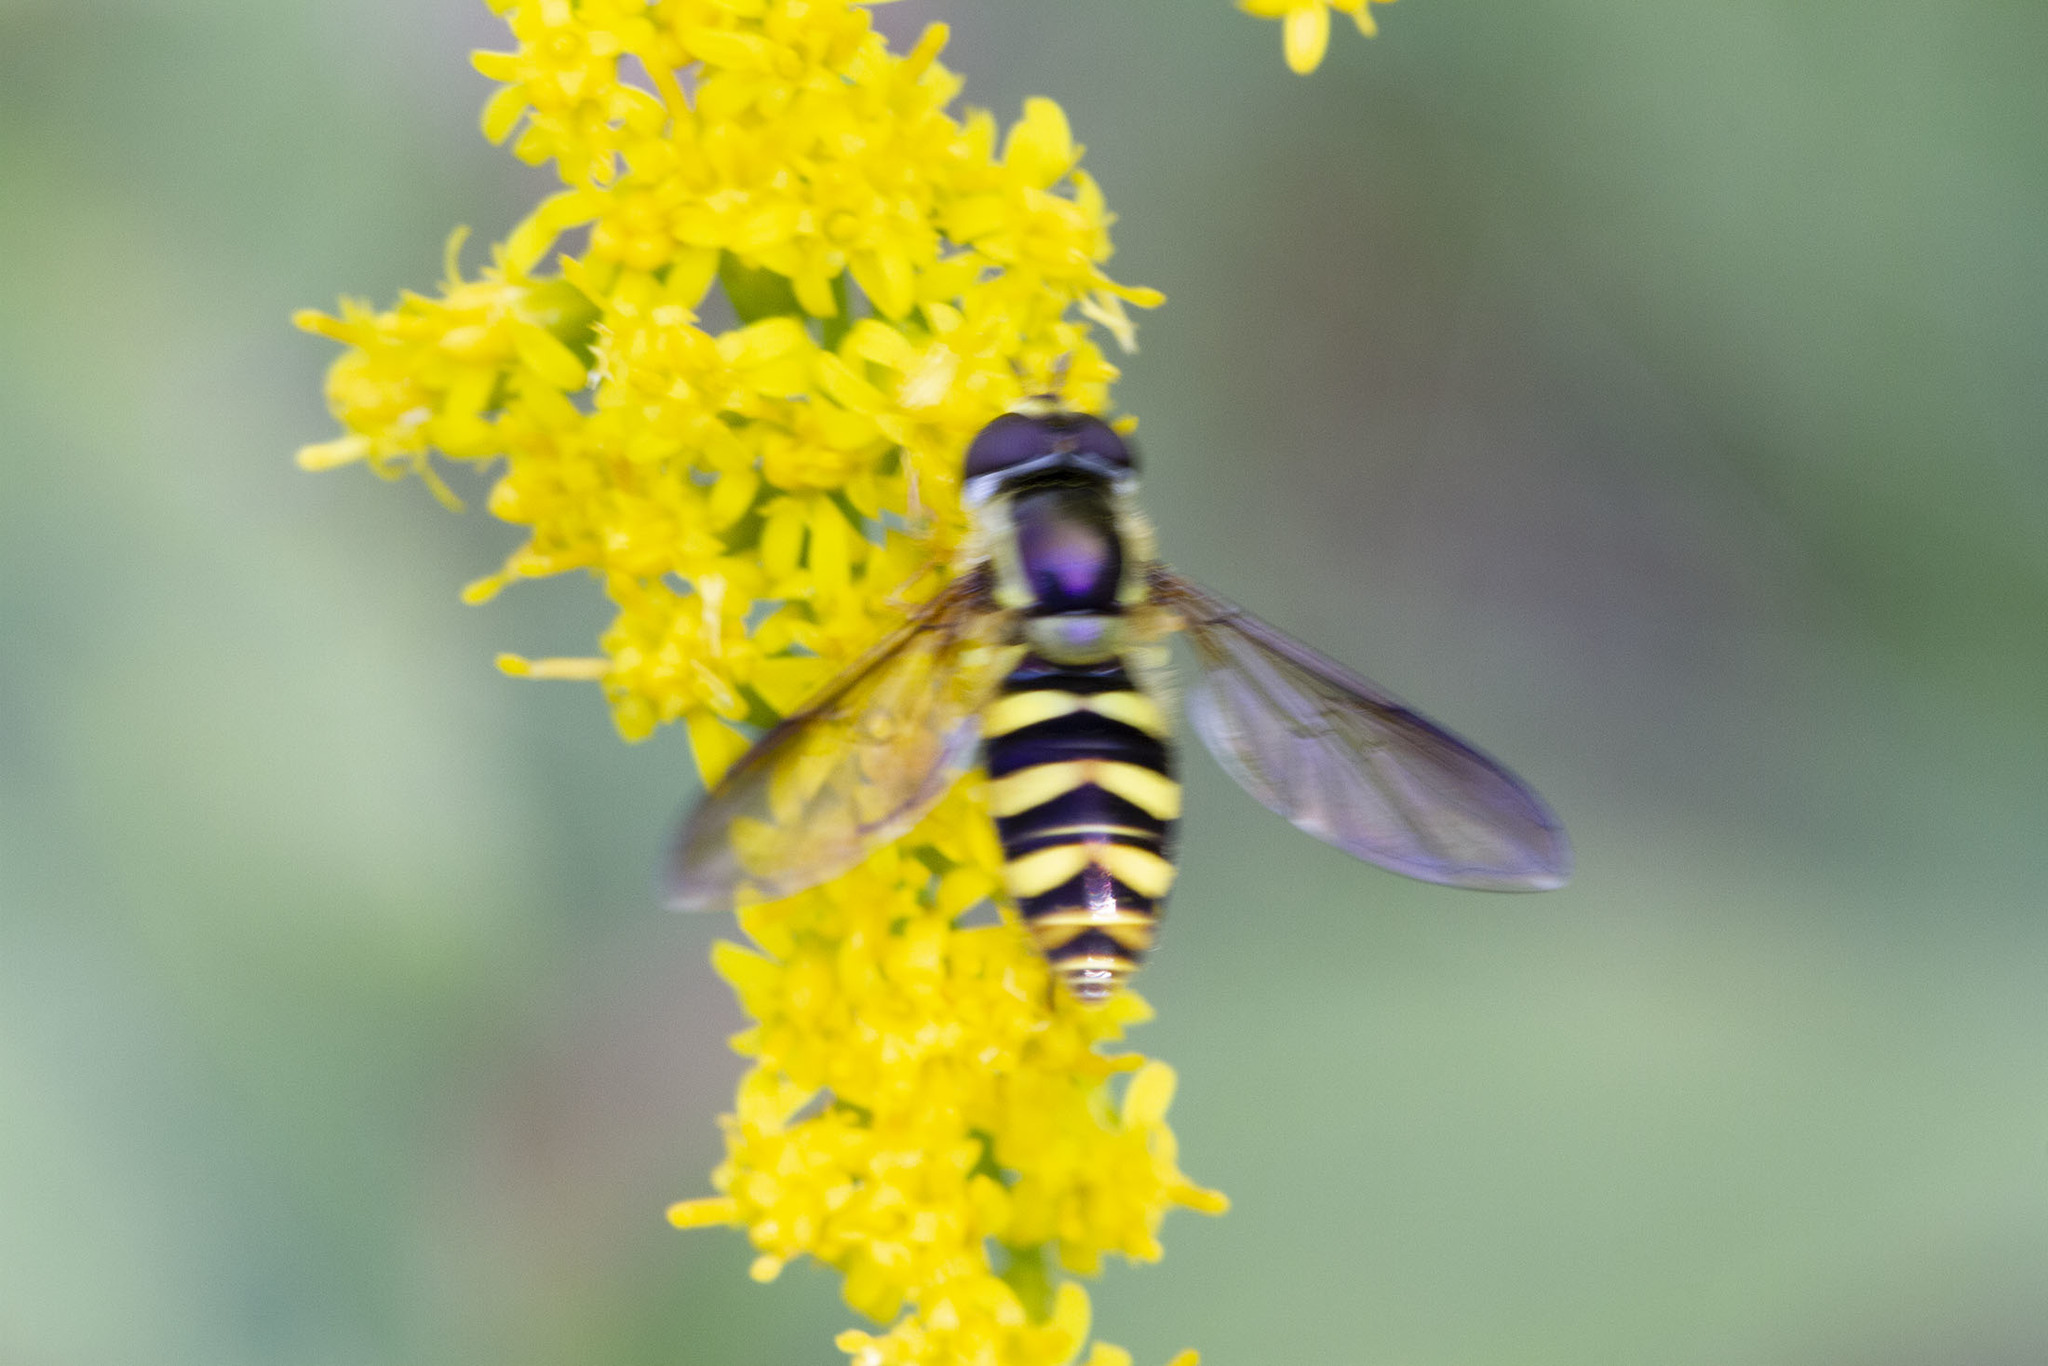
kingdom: Animalia
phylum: Arthropoda
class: Insecta
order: Diptera
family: Syrphidae
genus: Epistrophella
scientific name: Epistrophella emarginata
